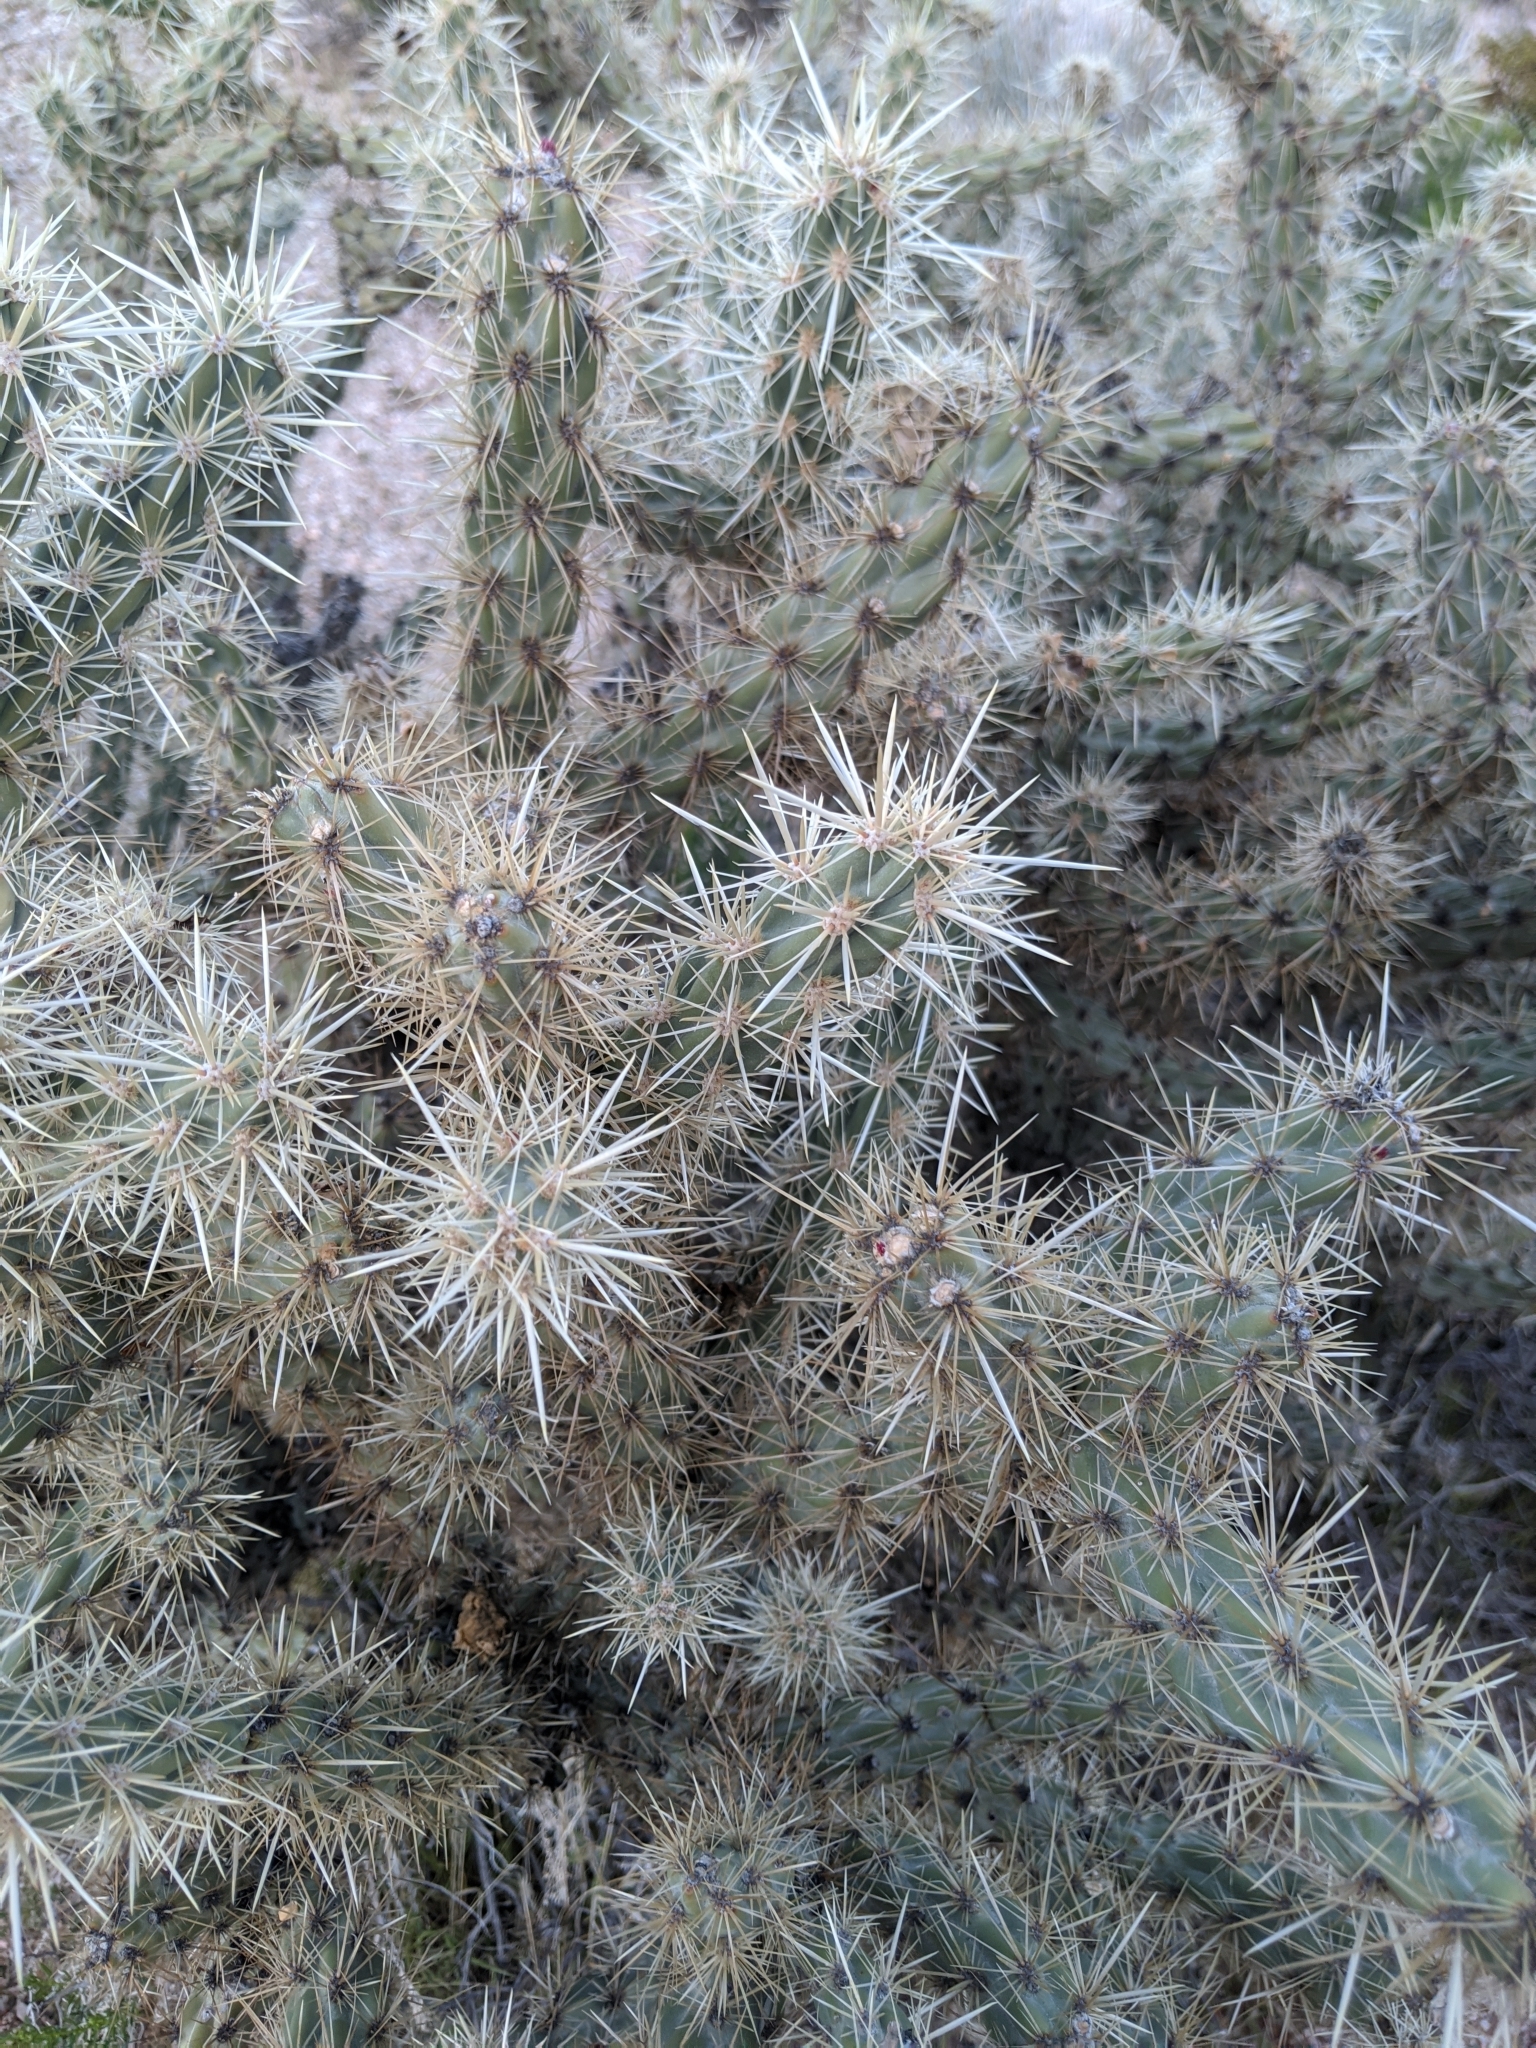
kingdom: Plantae
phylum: Tracheophyta
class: Magnoliopsida
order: Caryophyllales
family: Cactaceae
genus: Cylindropuntia
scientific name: Cylindropuntia acanthocarpa
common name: Buckhorn cholla
